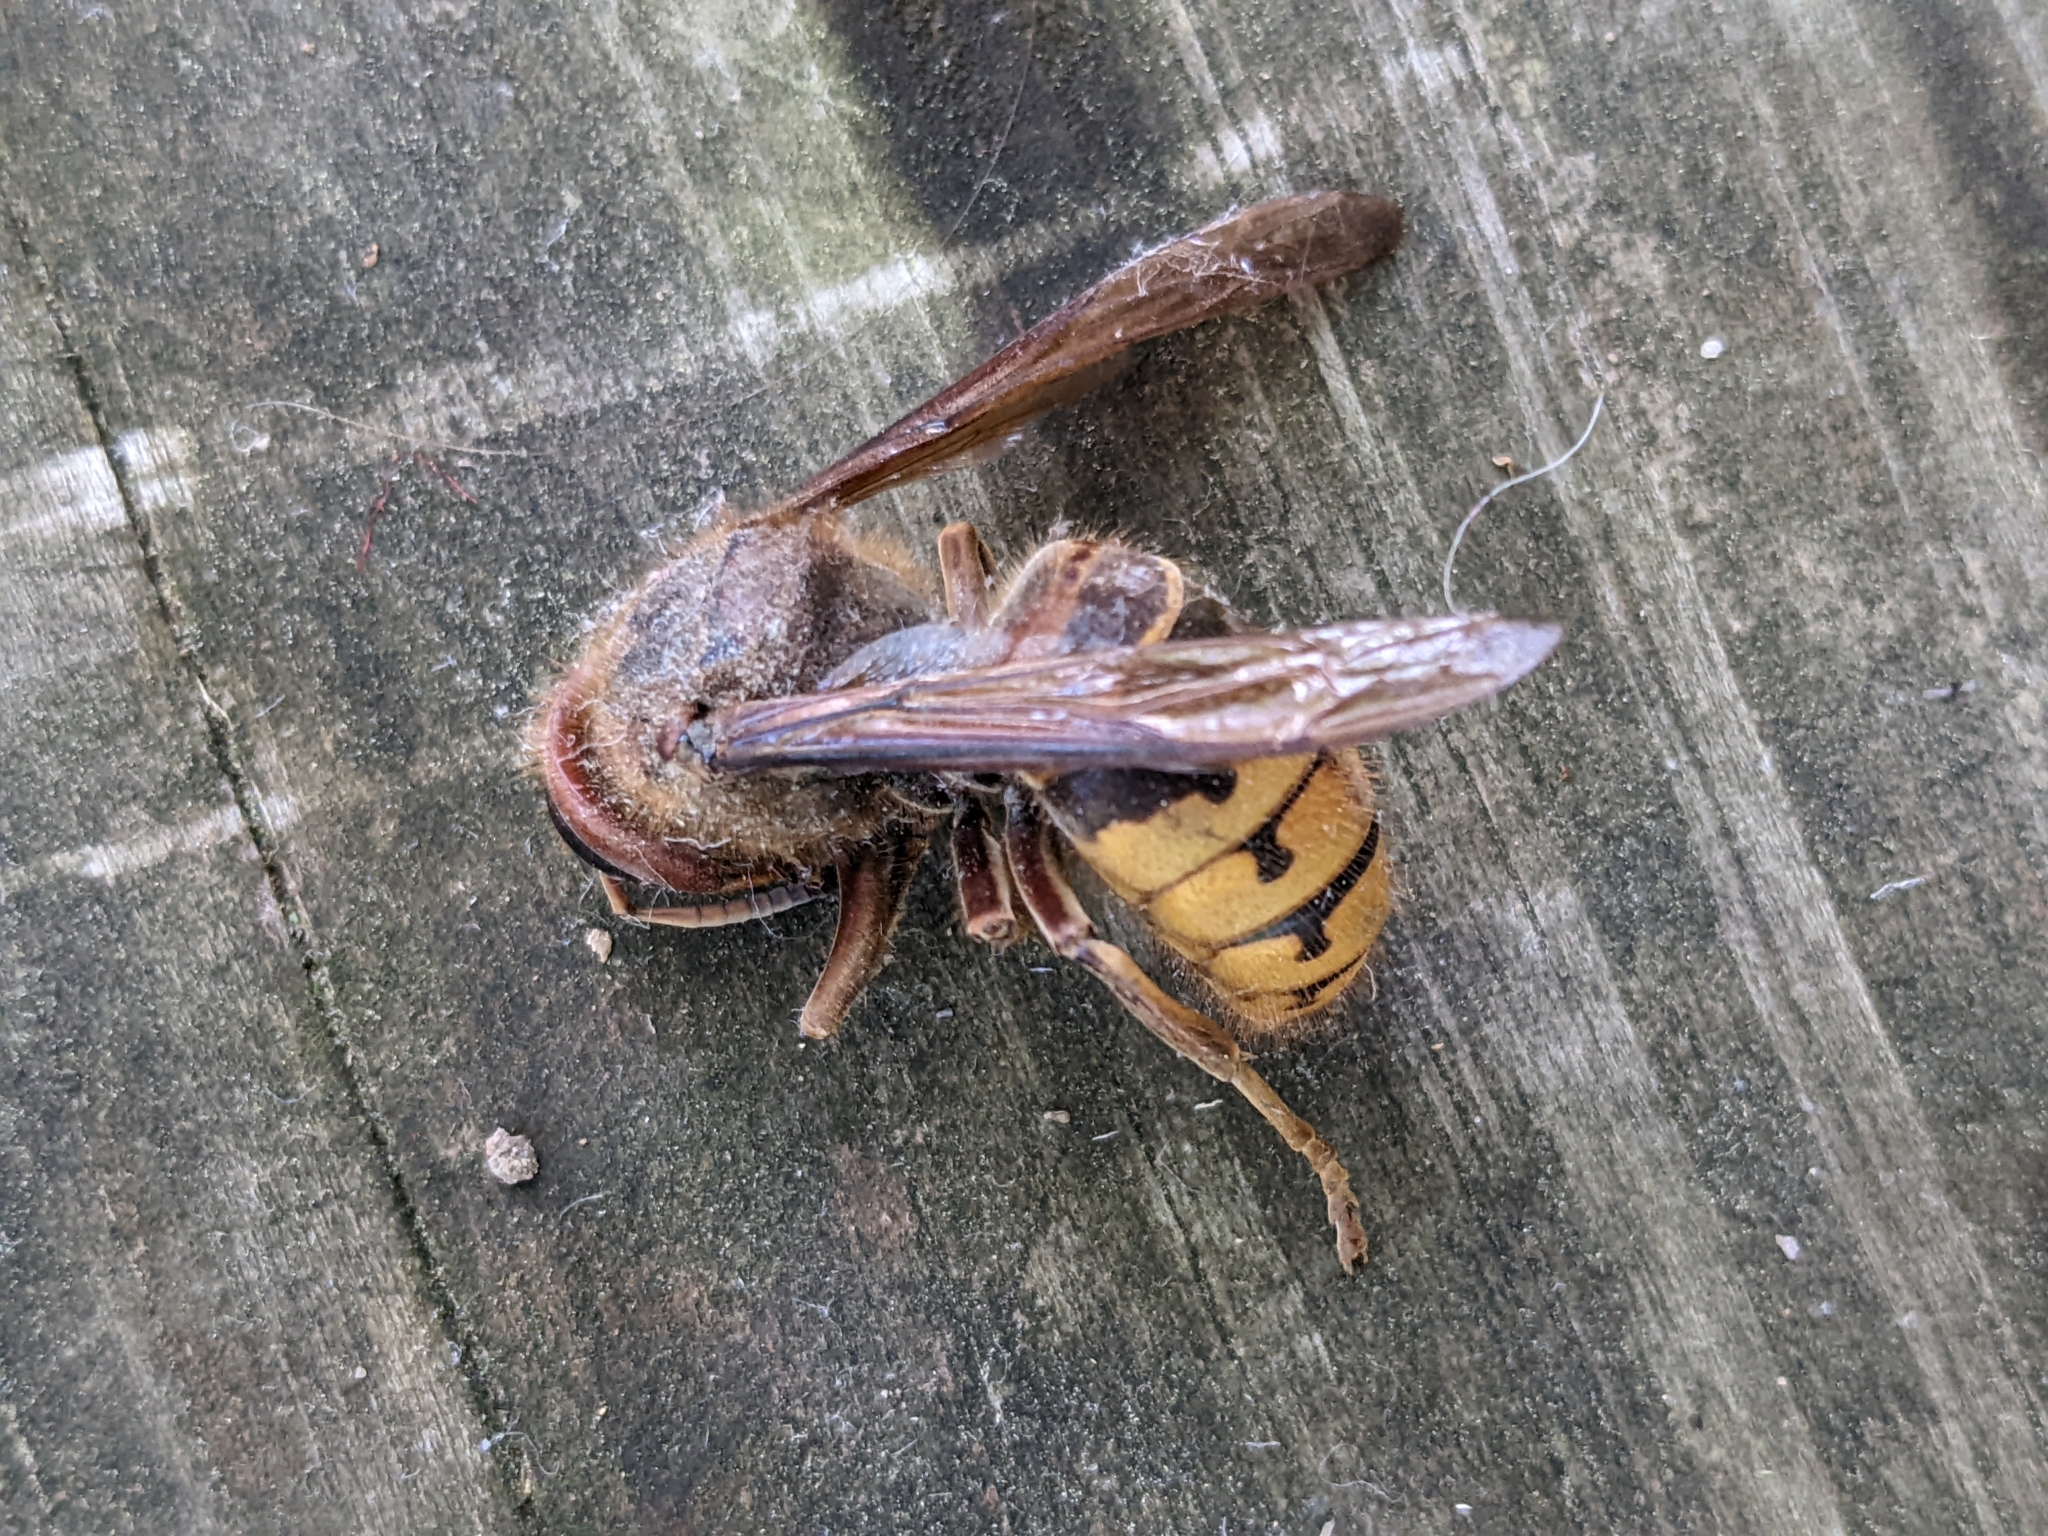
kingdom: Animalia
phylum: Arthropoda
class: Insecta
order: Hymenoptera
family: Vespidae
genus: Vespa
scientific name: Vespa crabro
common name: Hornet
